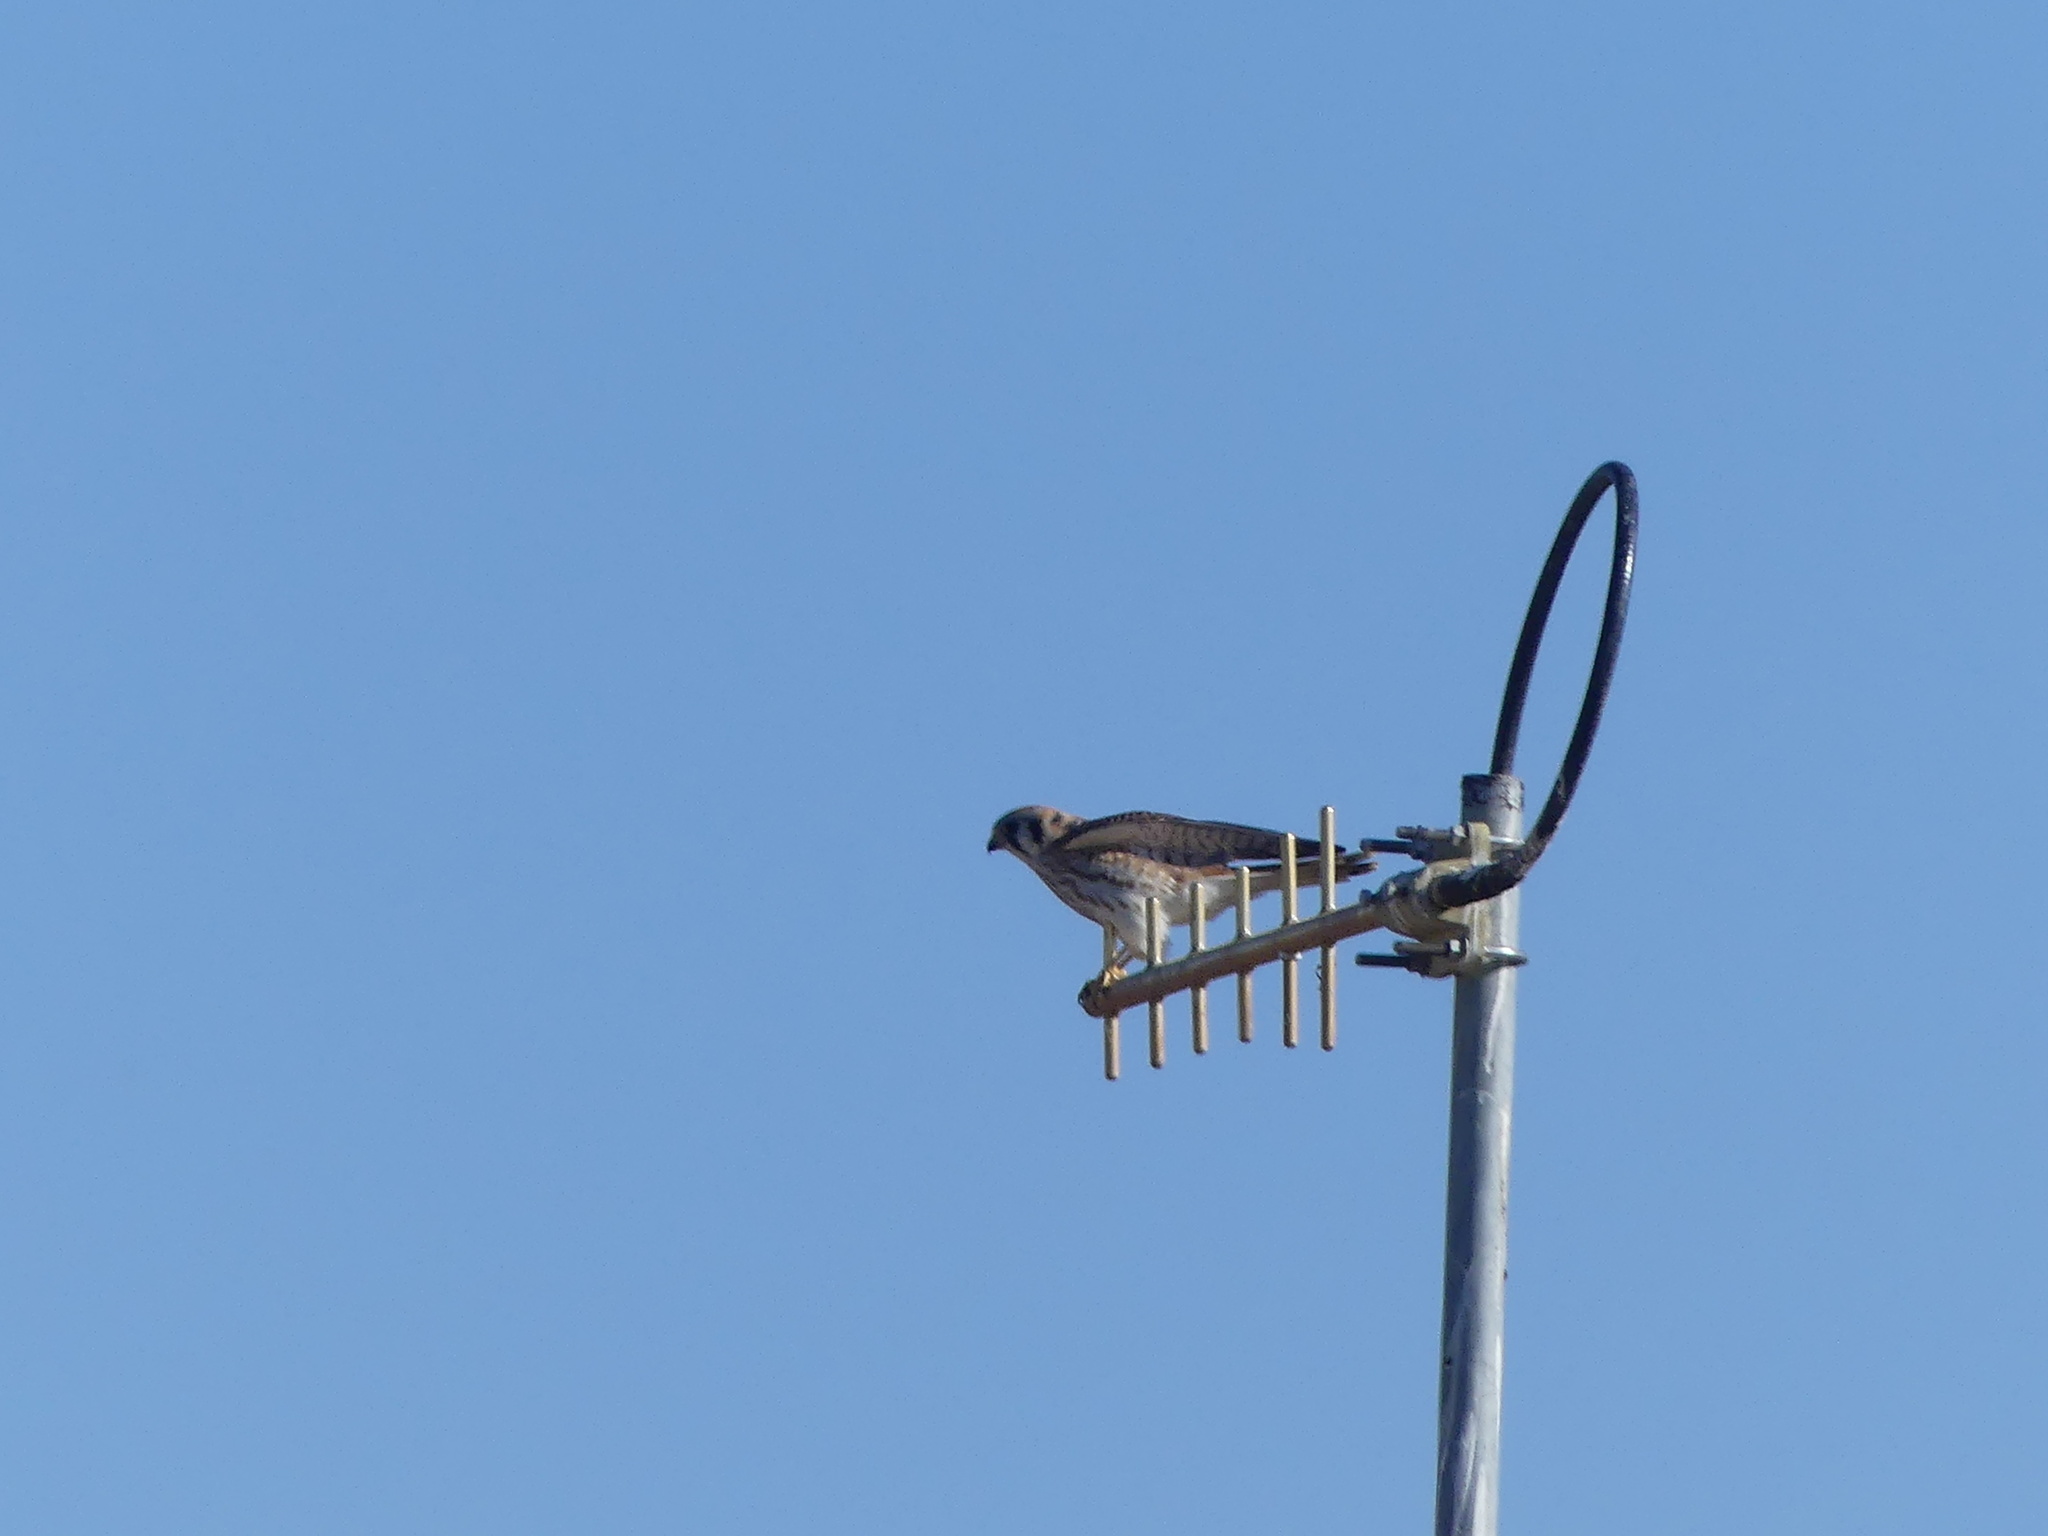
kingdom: Animalia
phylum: Chordata
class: Aves
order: Falconiformes
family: Falconidae
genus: Falco
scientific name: Falco sparverius
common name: American kestrel
